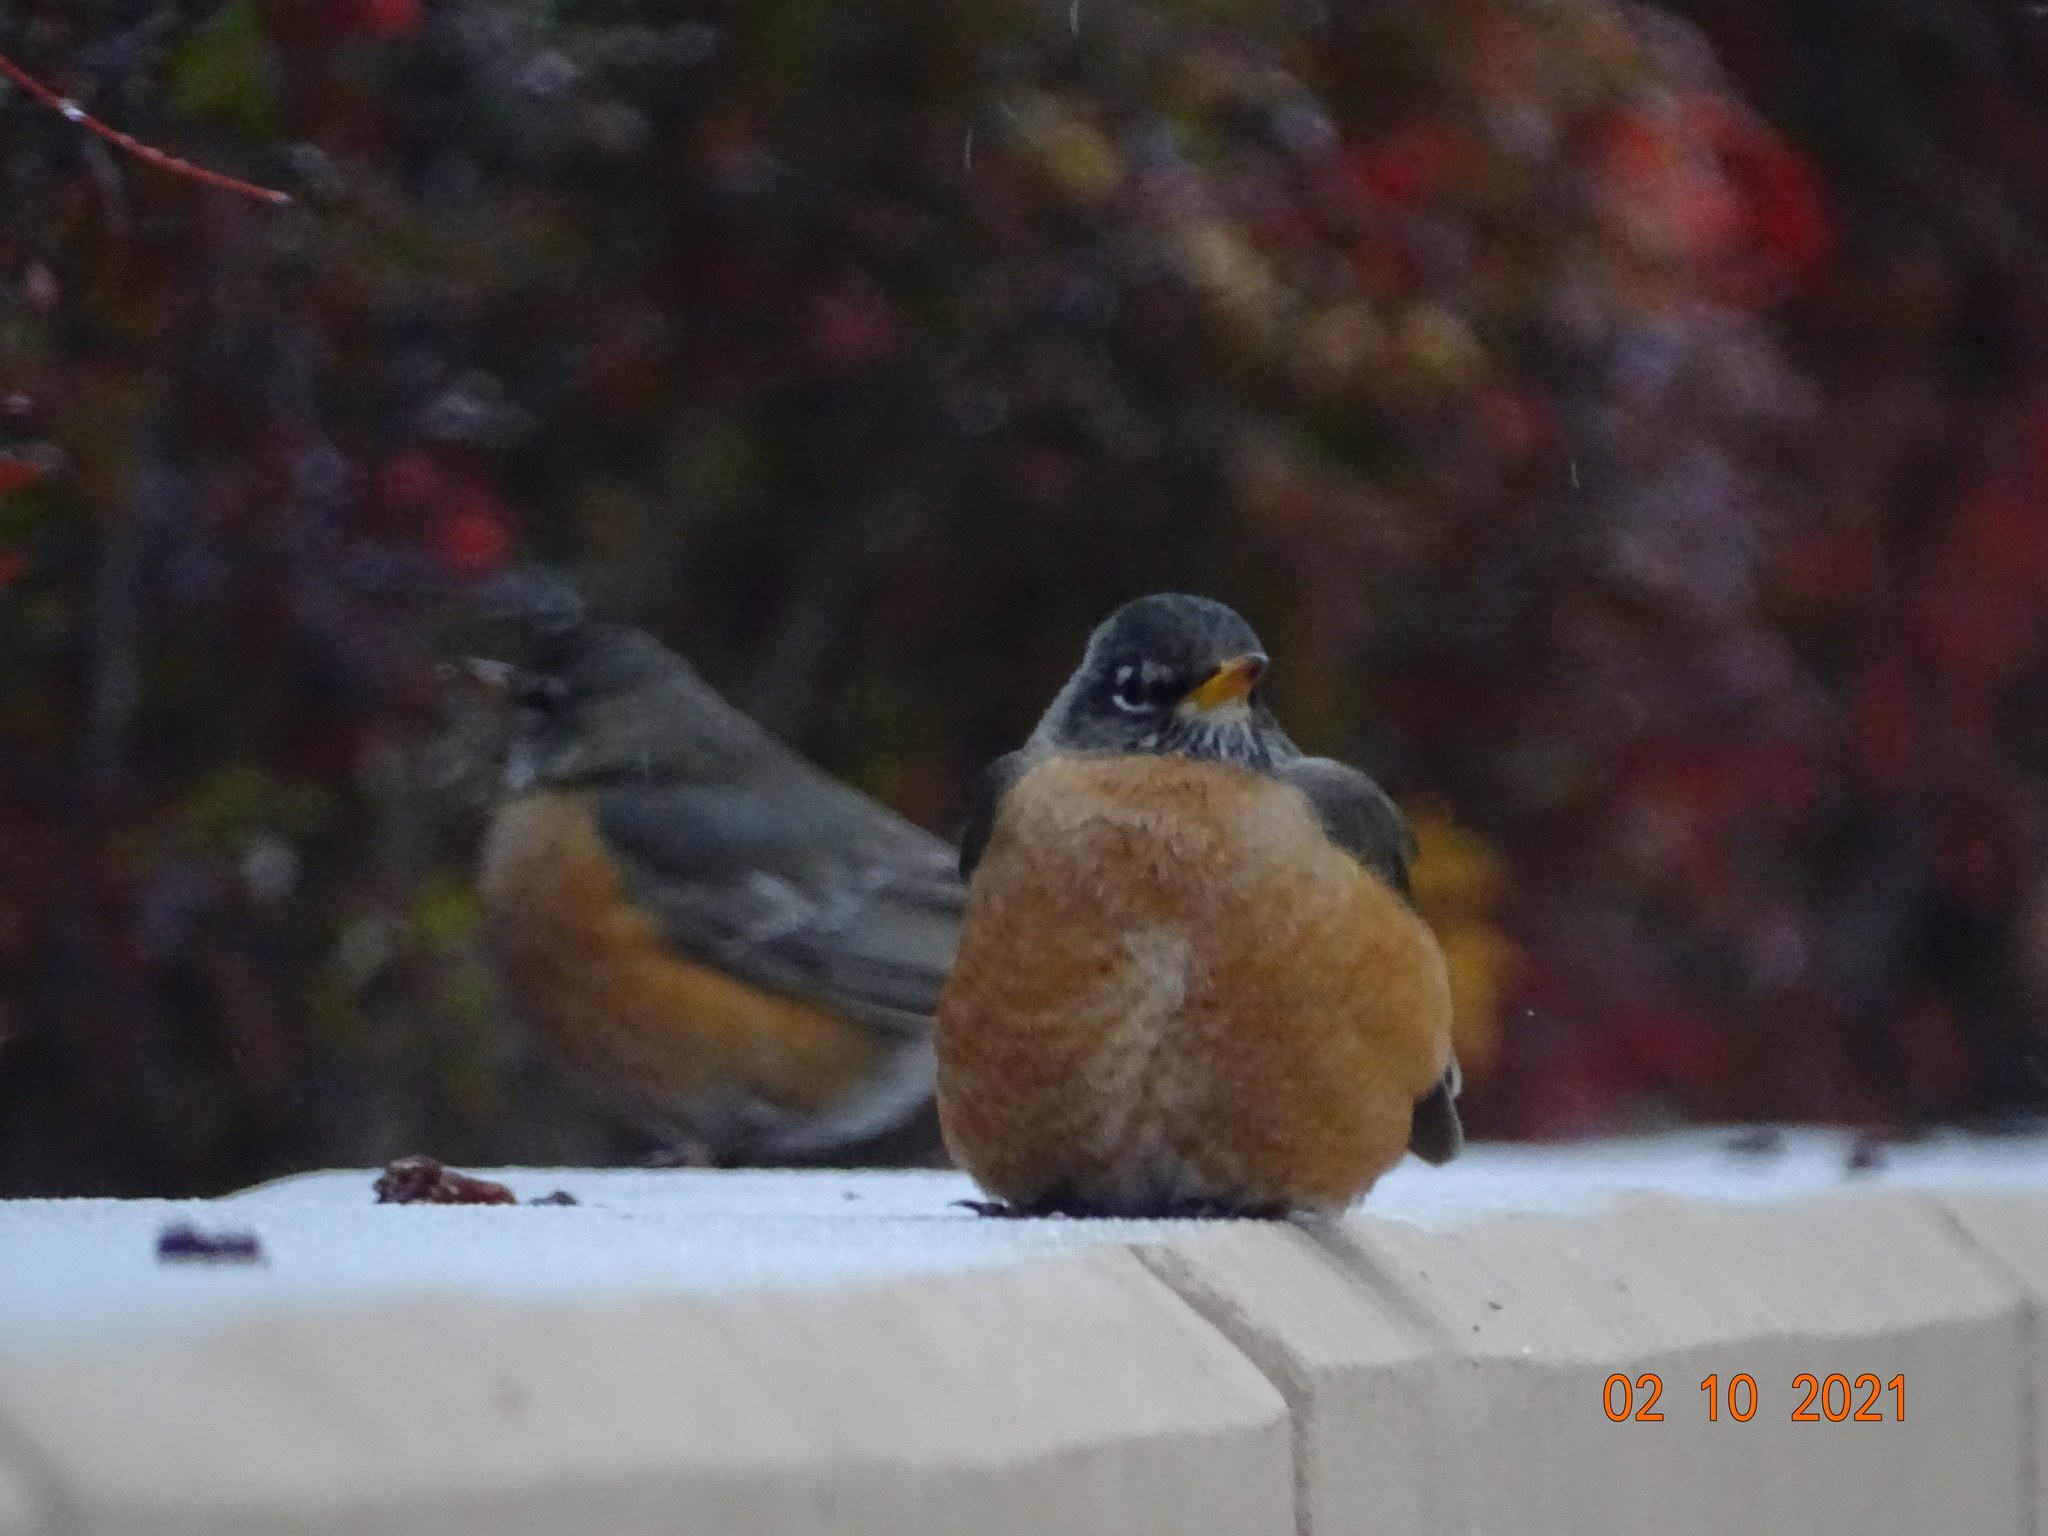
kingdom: Animalia
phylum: Chordata
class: Aves
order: Passeriformes
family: Turdidae
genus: Turdus
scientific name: Turdus migratorius
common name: American robin
